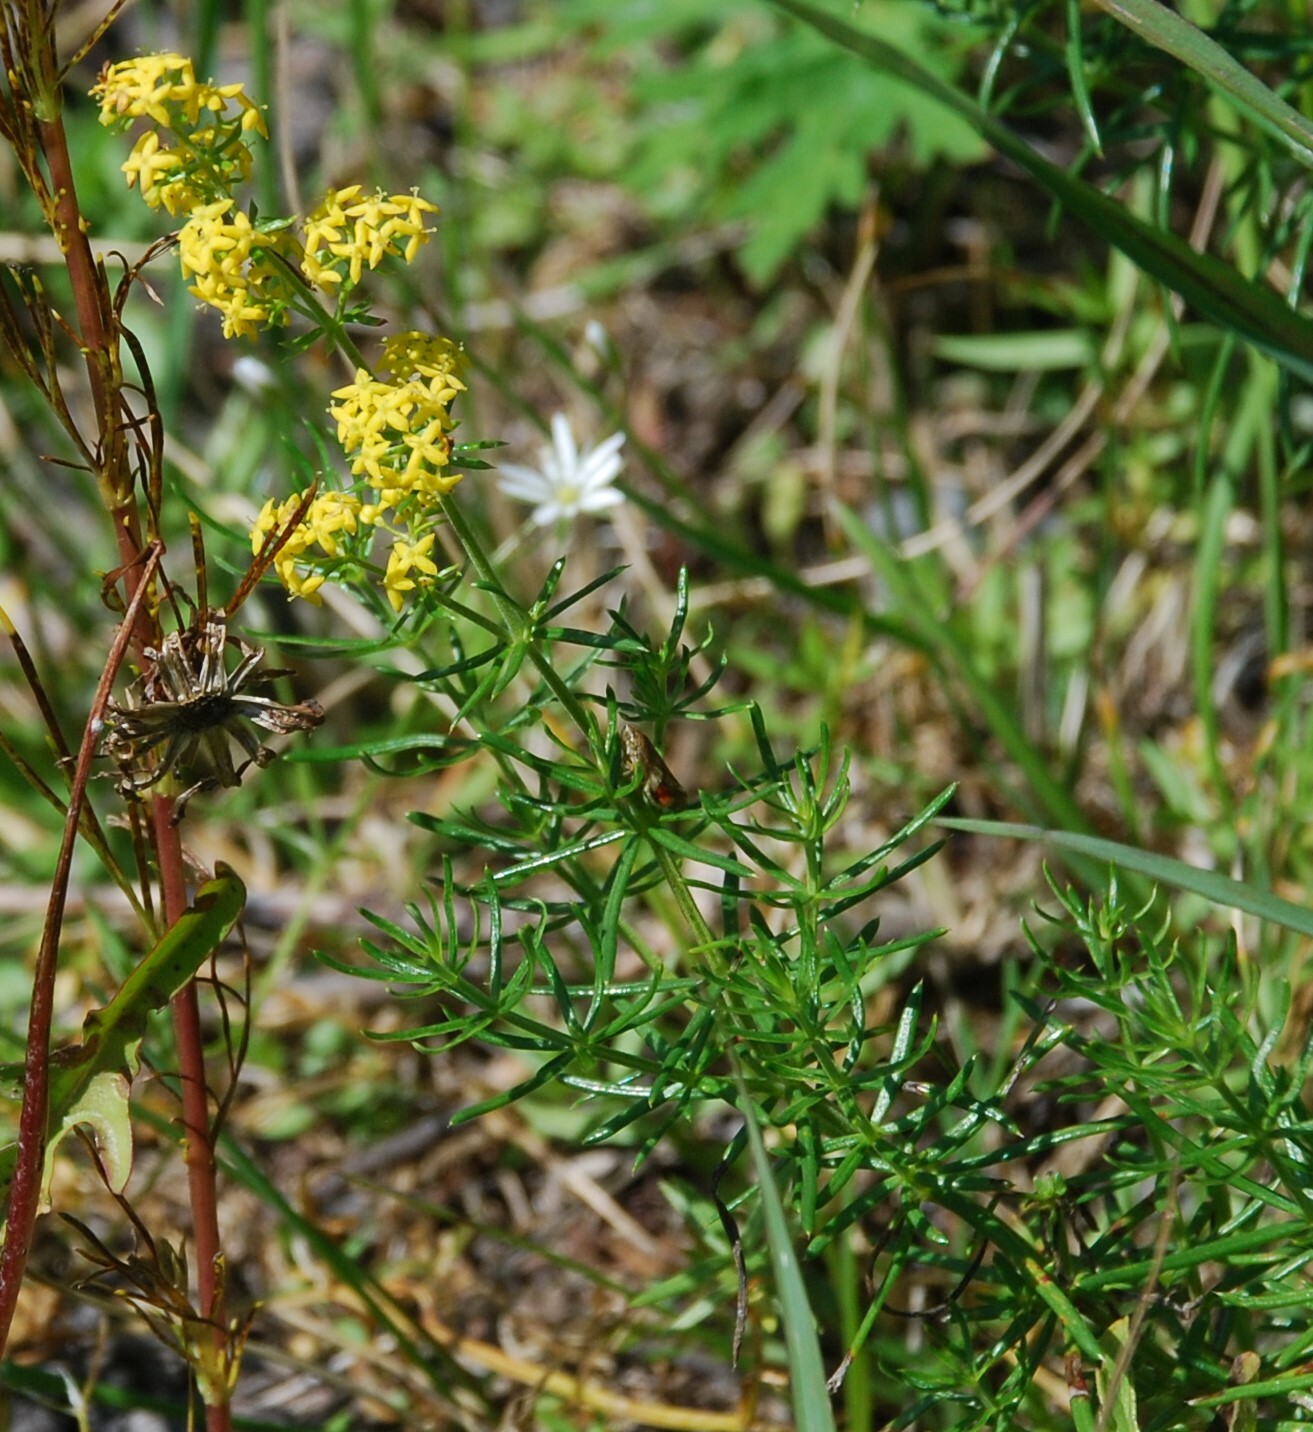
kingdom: Plantae
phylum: Tracheophyta
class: Magnoliopsida
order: Gentianales
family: Rubiaceae
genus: Galium
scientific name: Galium verum
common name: Lady's bedstraw
